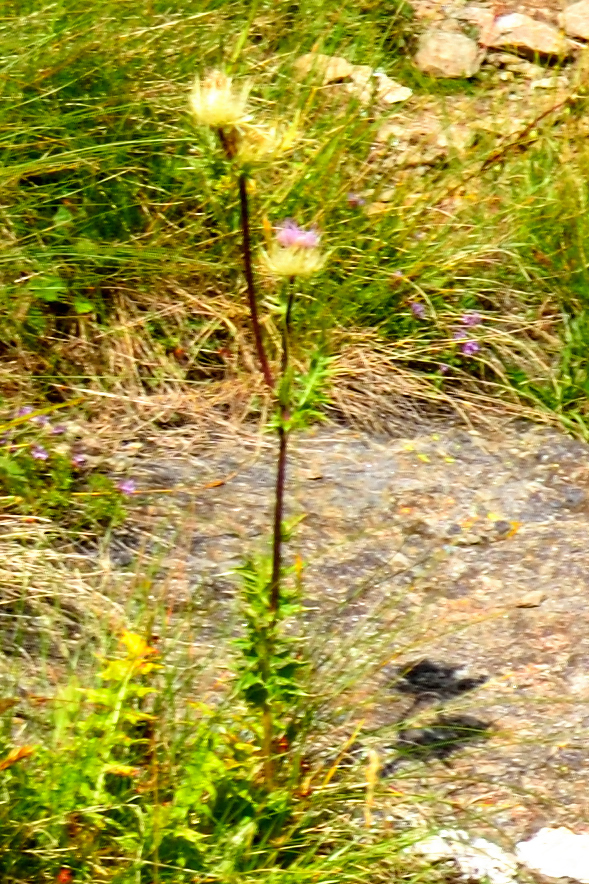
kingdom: Plantae
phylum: Tracheophyta
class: Magnoliopsida
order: Asterales
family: Asteraceae
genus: Cirsium
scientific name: Cirsium obvallatum
